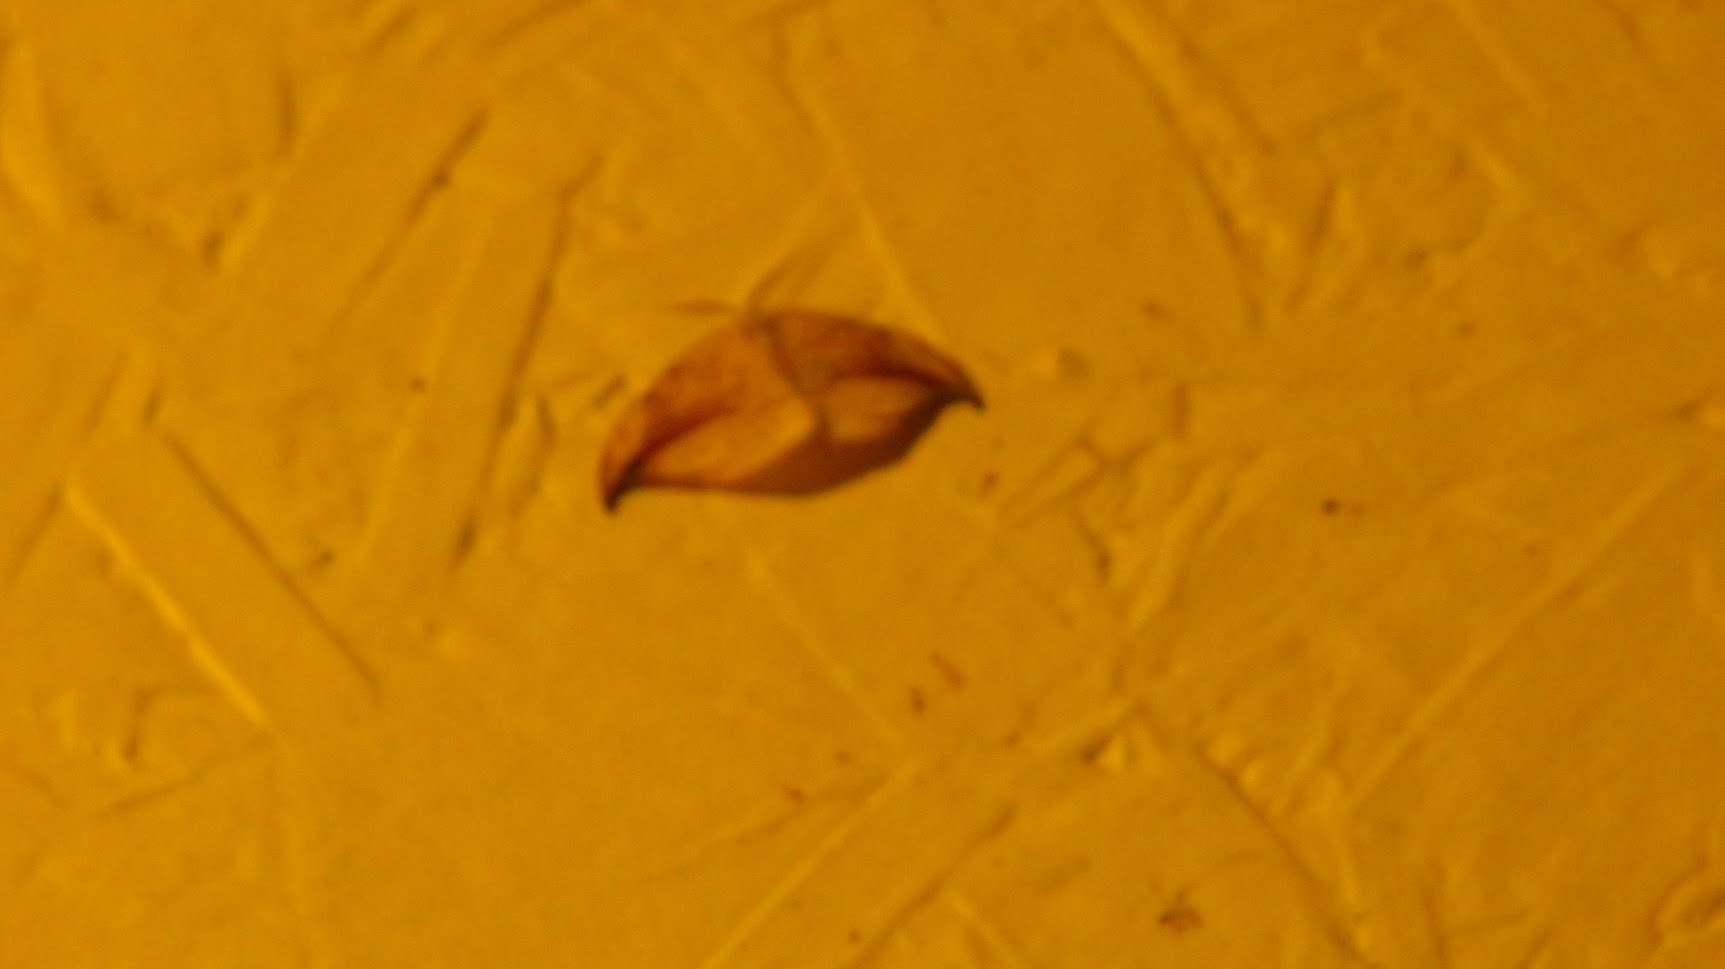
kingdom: Animalia
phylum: Arthropoda
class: Insecta
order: Lepidoptera
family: Drepanidae
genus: Drepana
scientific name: Drepana arcuata
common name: Arched hooktip moth
